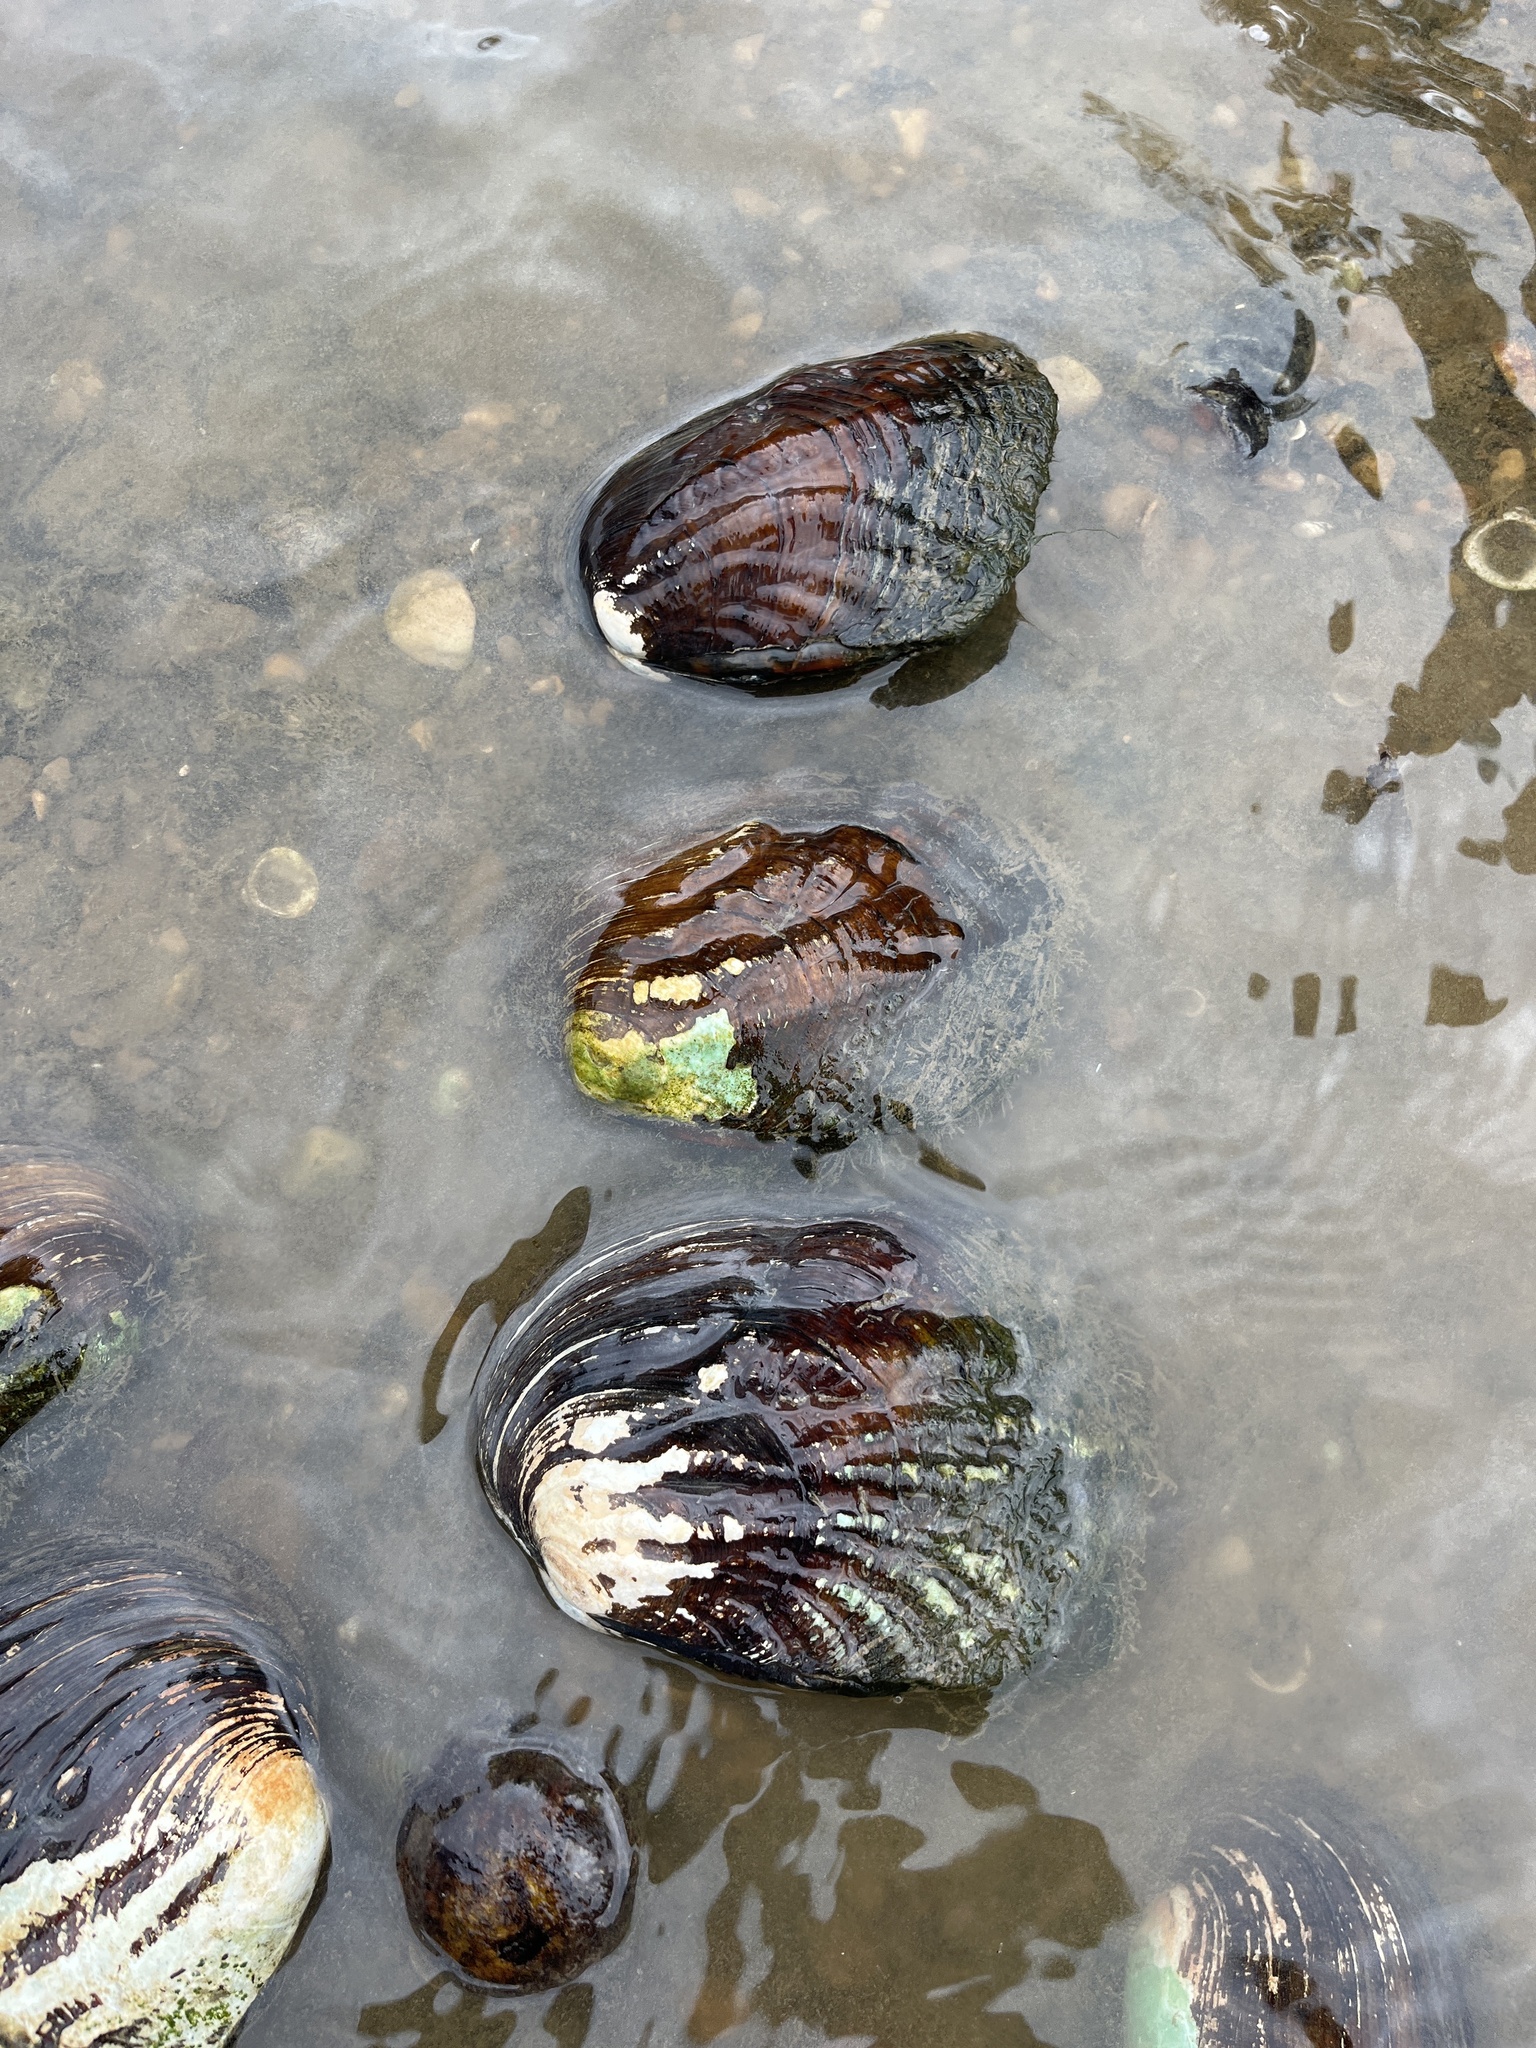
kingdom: Animalia
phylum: Mollusca
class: Bivalvia
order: Unionida
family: Unionidae
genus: Amblema
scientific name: Amblema plicata
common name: Threeridge
